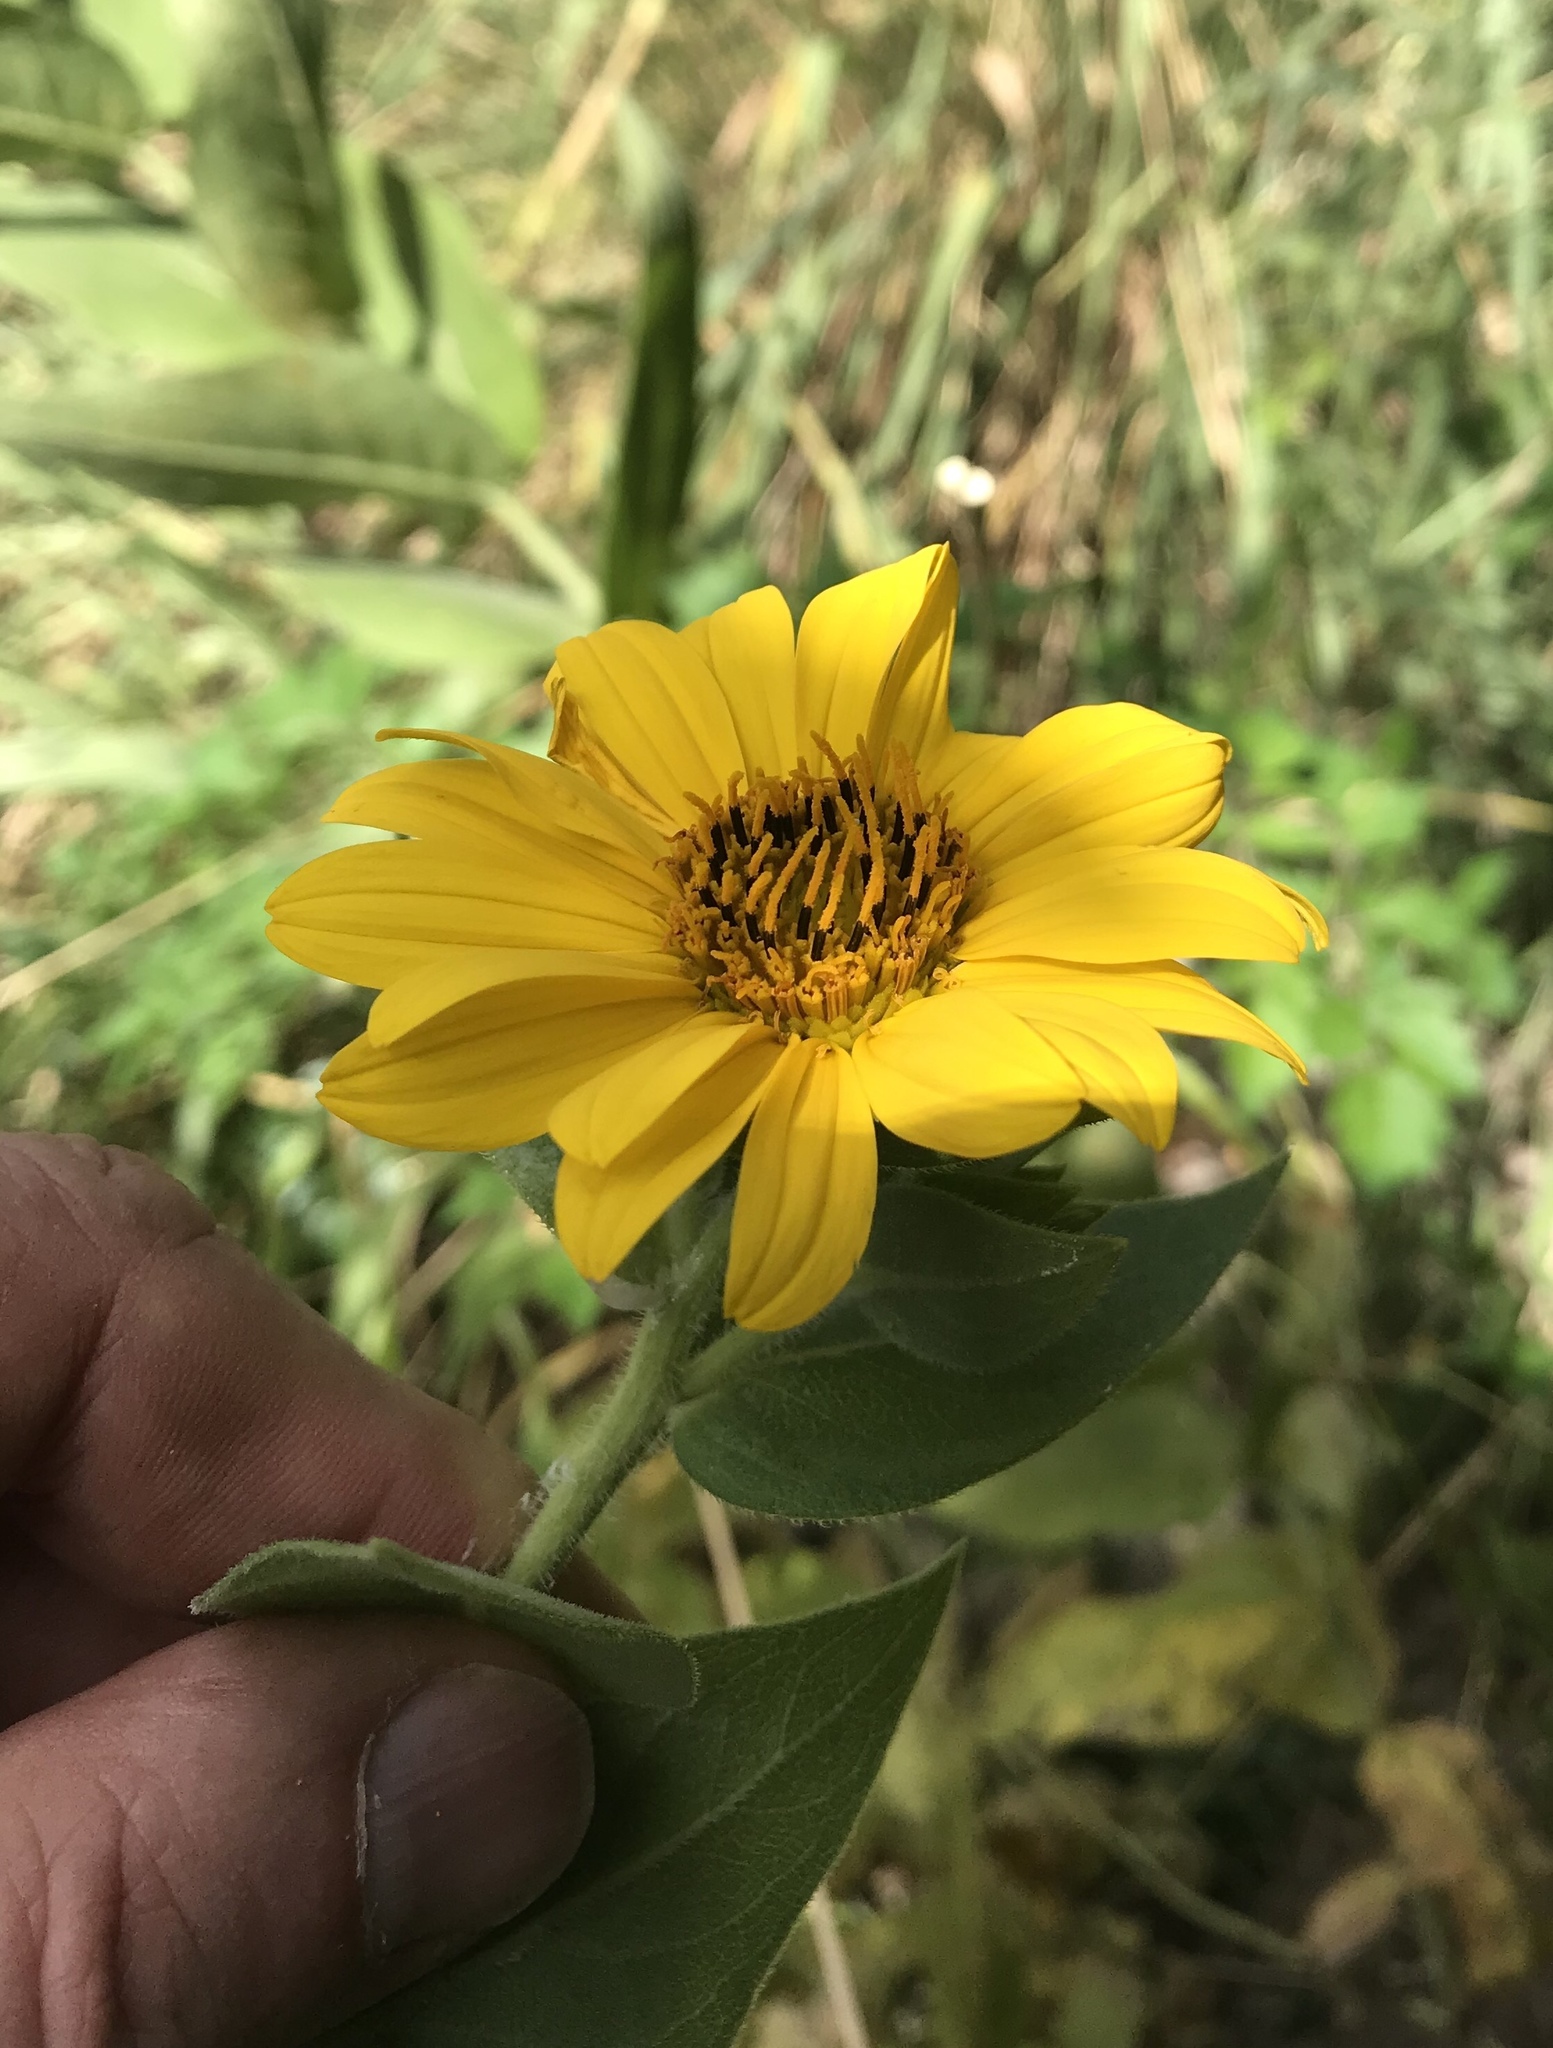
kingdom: Plantae
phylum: Tracheophyta
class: Magnoliopsida
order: Asterales
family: Asteraceae
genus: Silphium
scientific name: Silphium radula
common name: Roughleaf rosinweed
